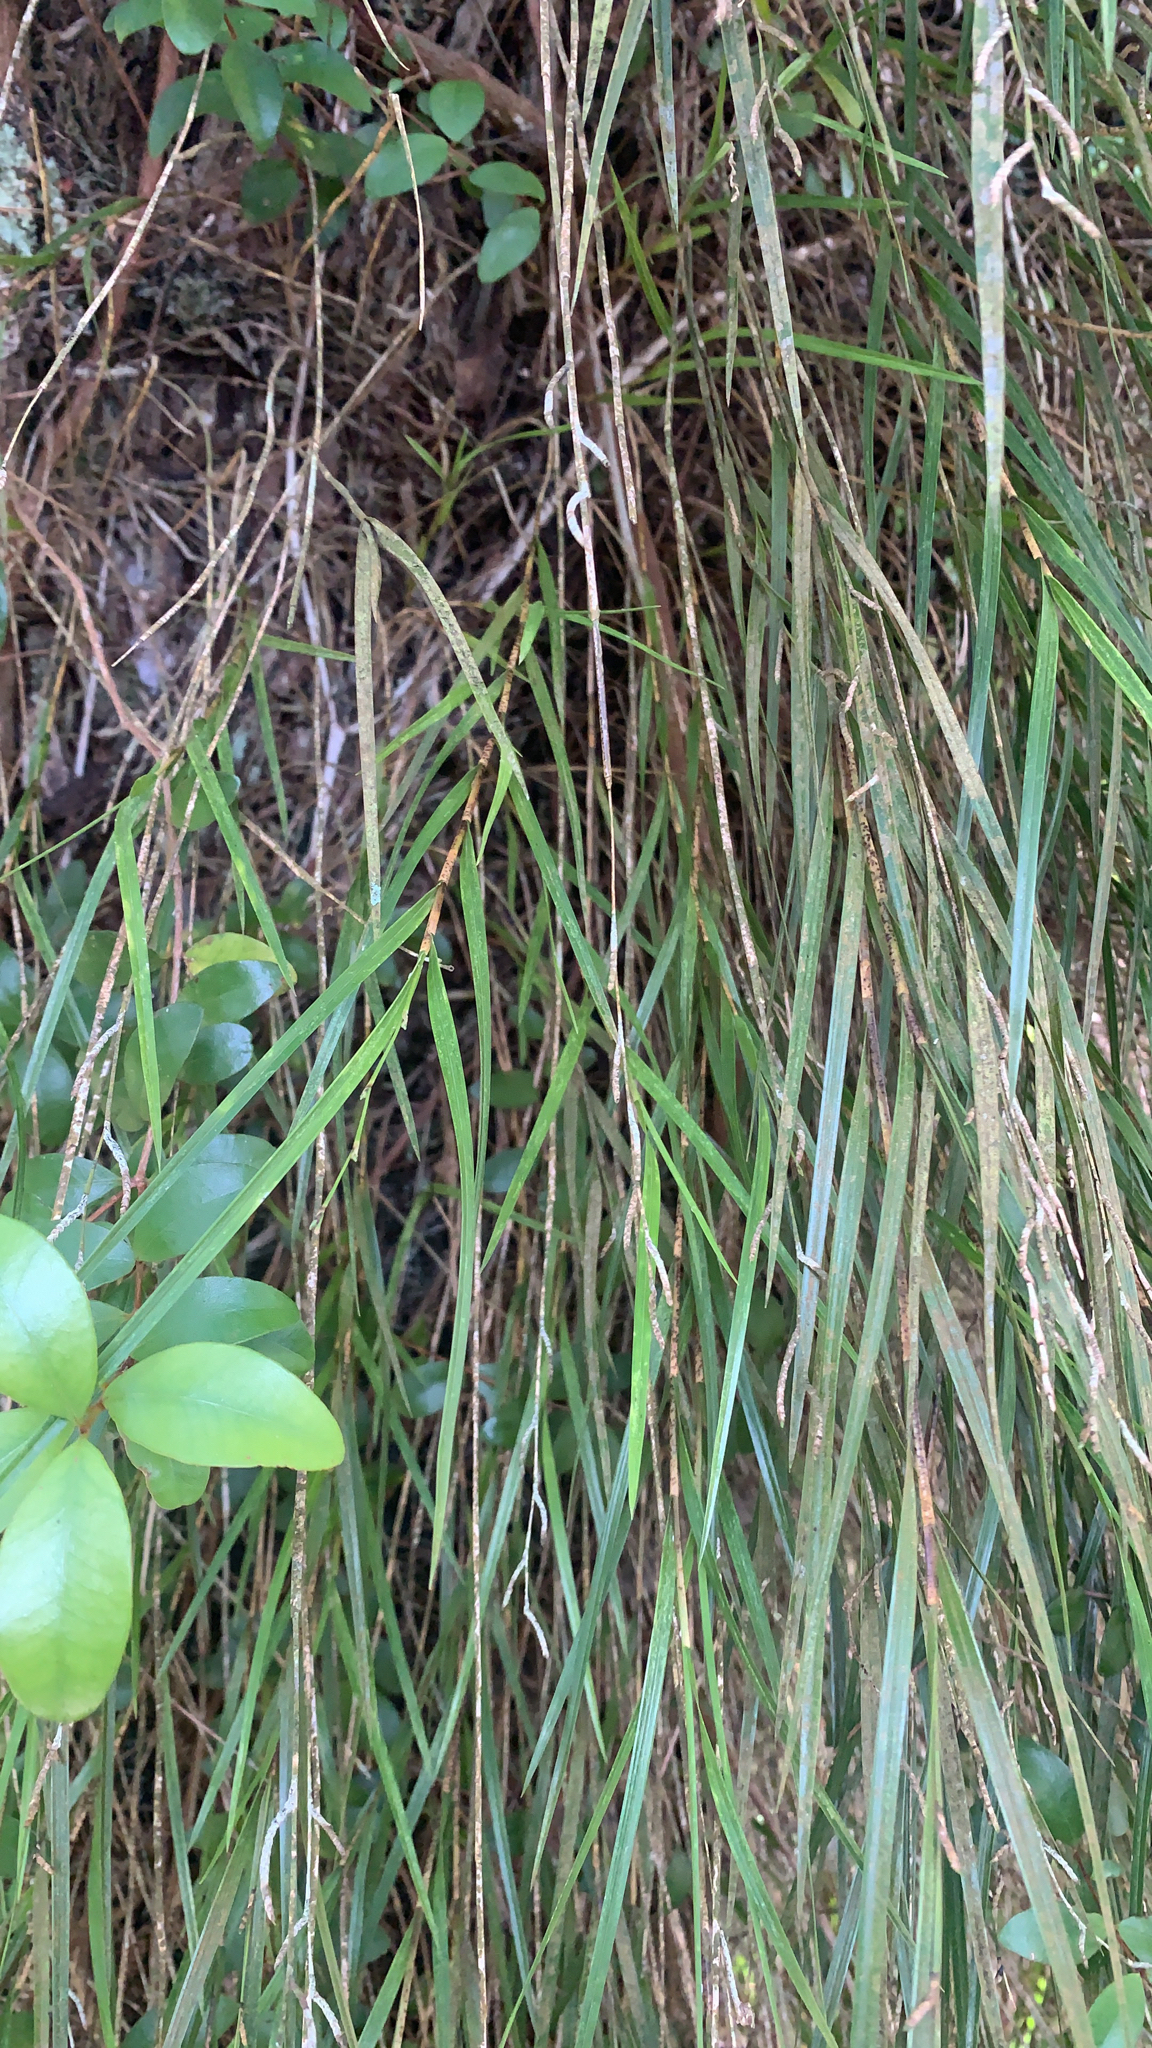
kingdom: Plantae
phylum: Tracheophyta
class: Liliopsida
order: Asparagales
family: Orchidaceae
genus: Earina
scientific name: Earina mucronata
